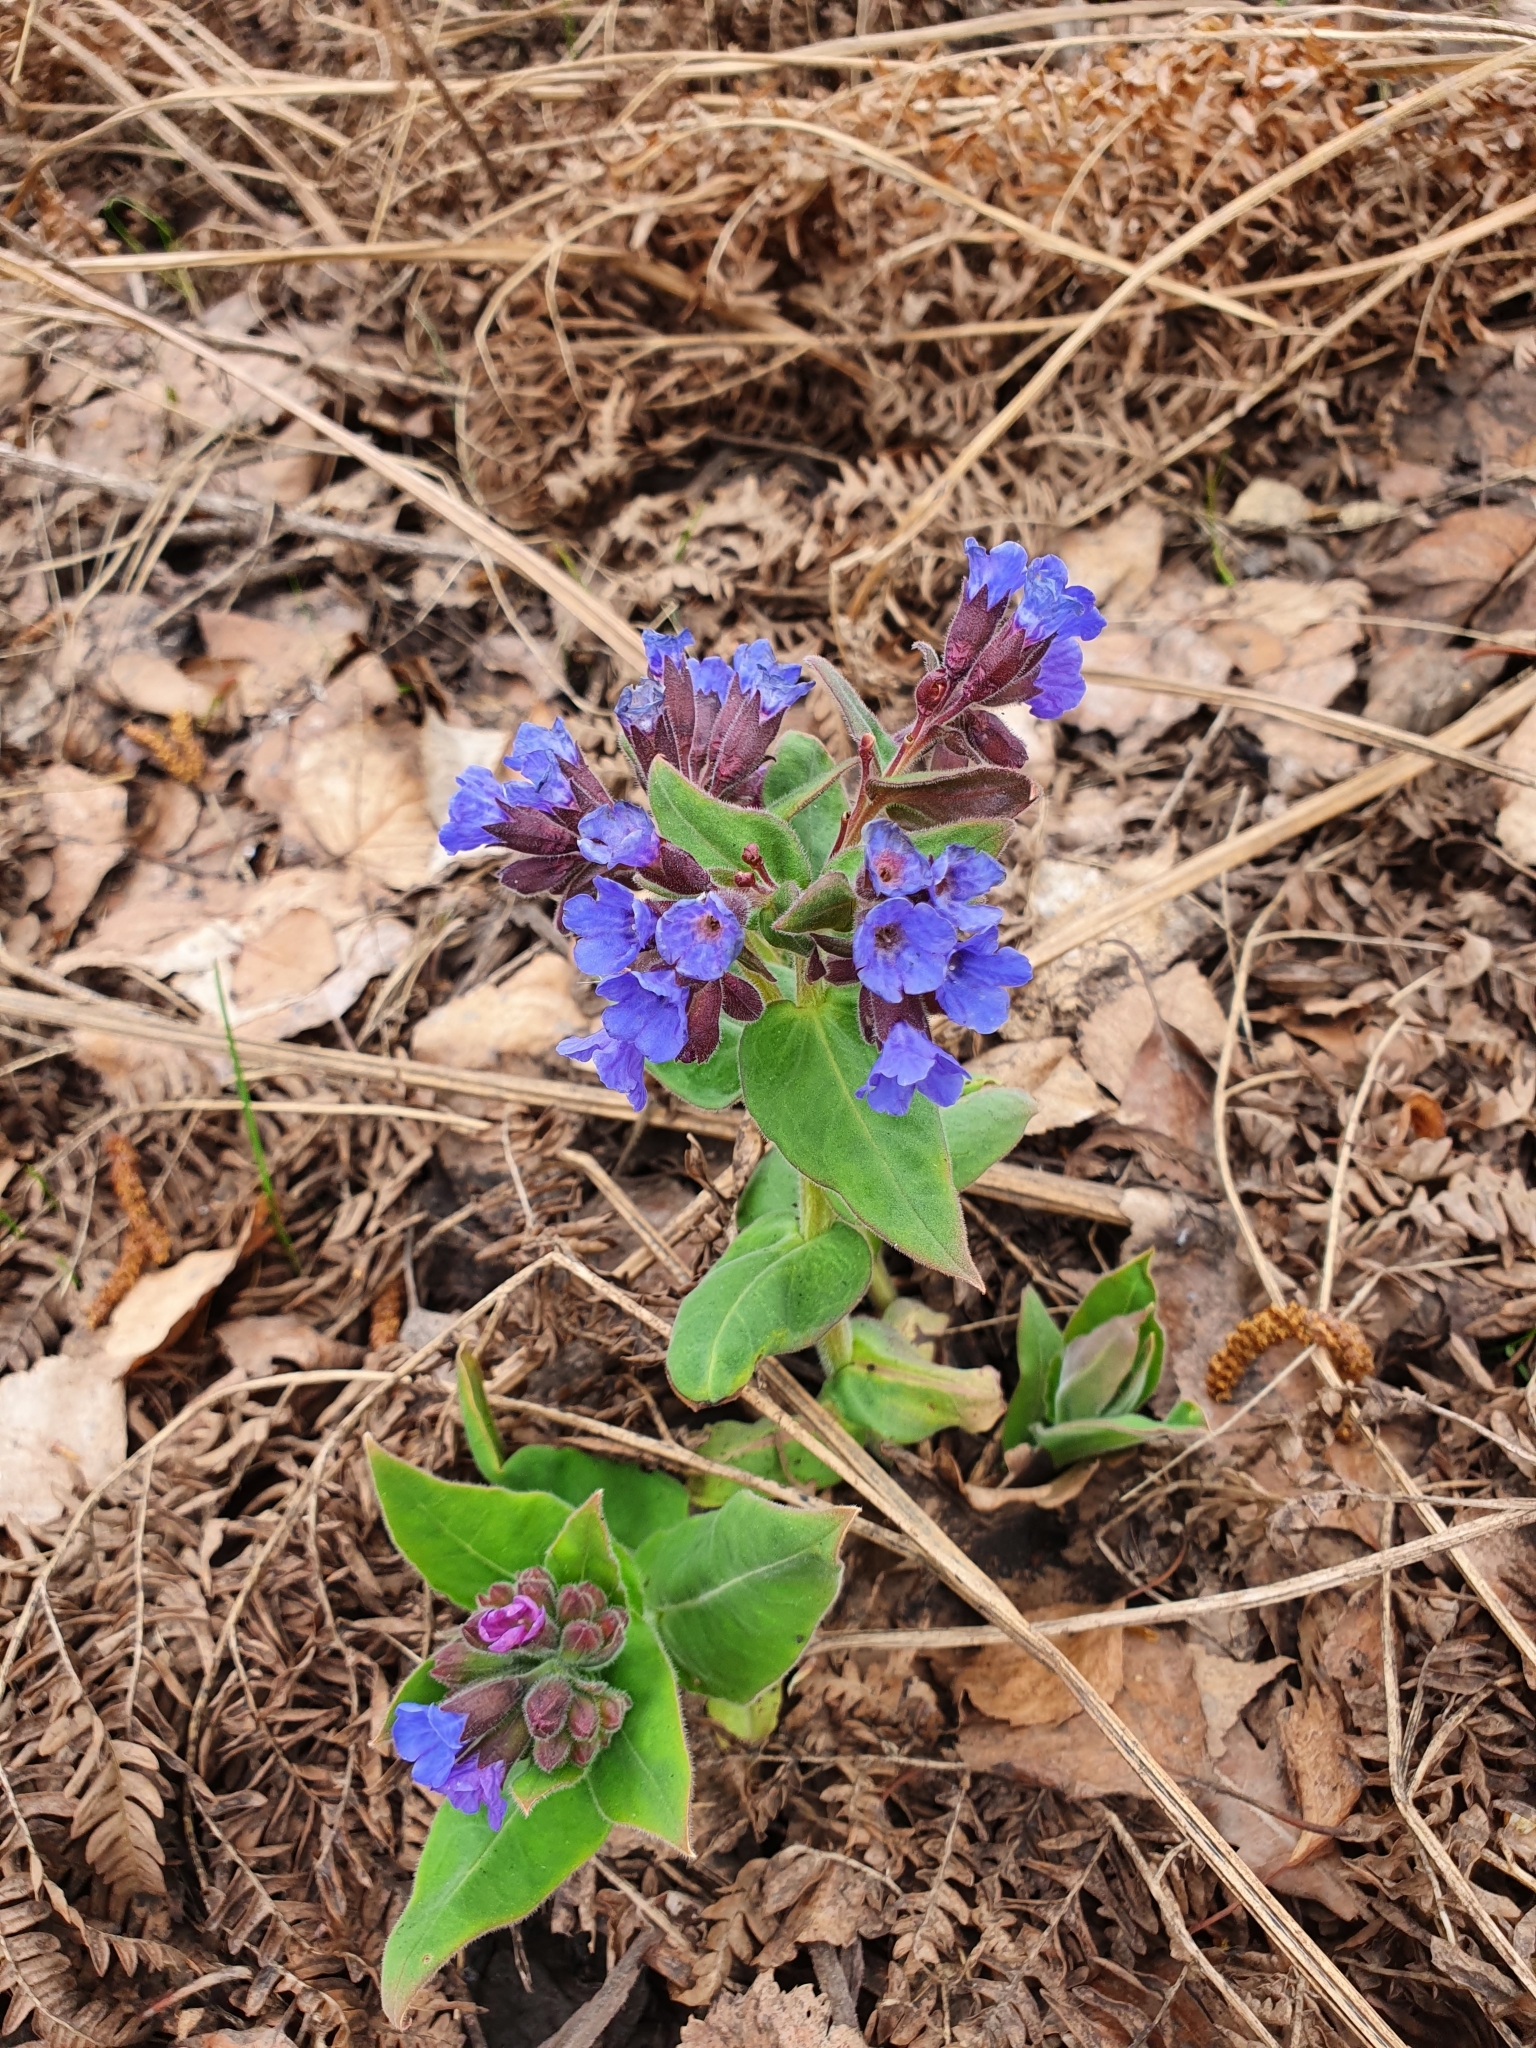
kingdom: Plantae
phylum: Tracheophyta
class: Magnoliopsida
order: Boraginales
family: Boraginaceae
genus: Pulmonaria
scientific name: Pulmonaria mollis
